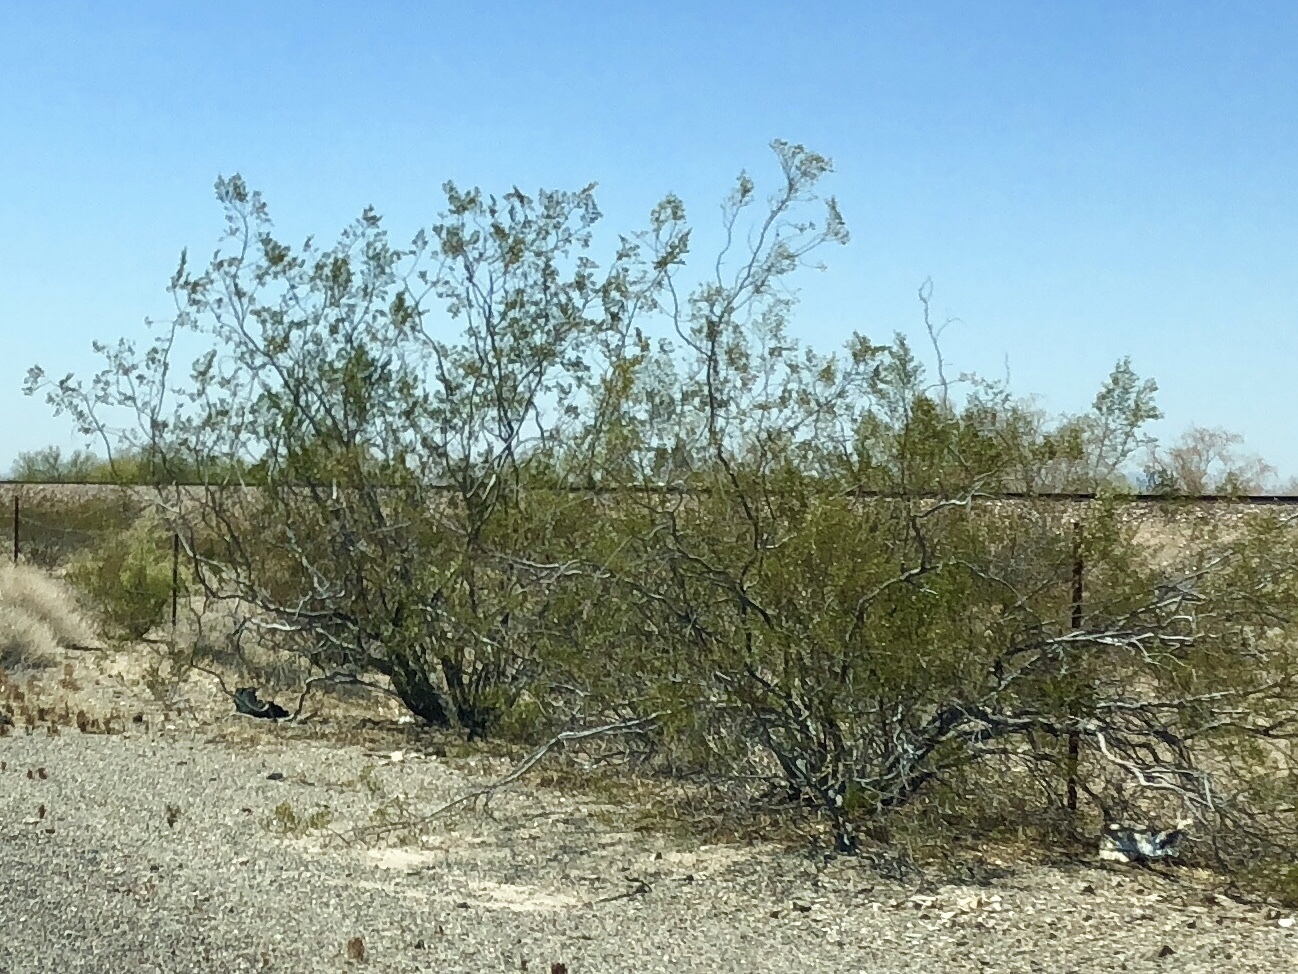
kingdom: Plantae
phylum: Tracheophyta
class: Magnoliopsida
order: Zygophyllales
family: Zygophyllaceae
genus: Larrea
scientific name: Larrea tridentata
